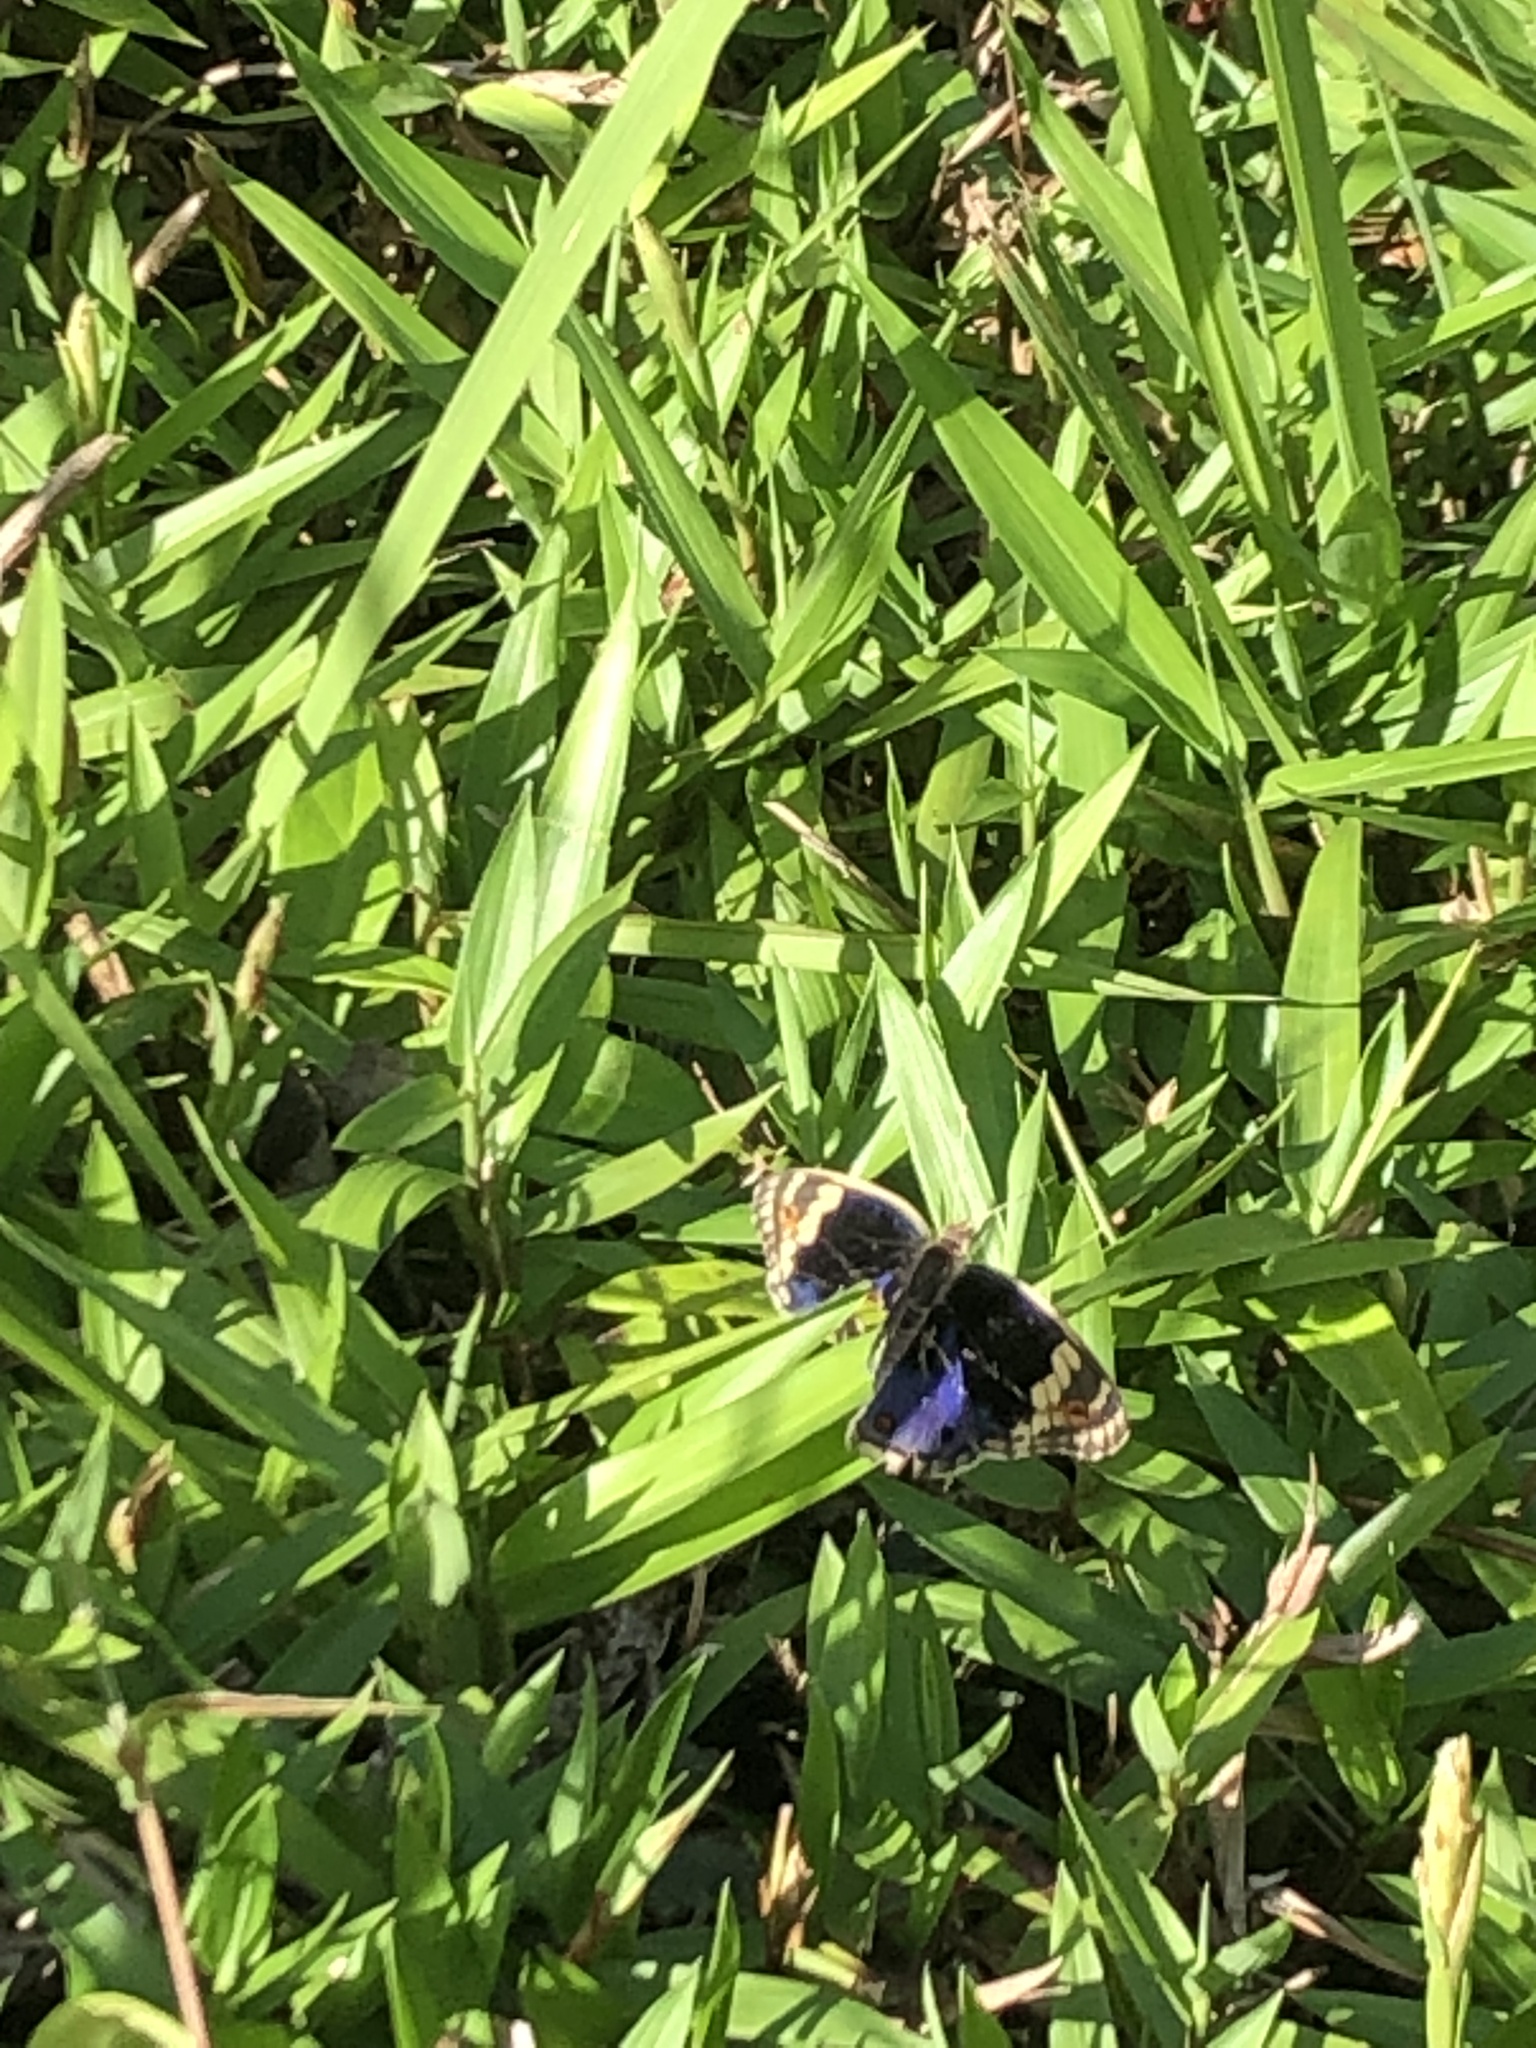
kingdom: Animalia
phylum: Arthropoda
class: Insecta
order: Lepidoptera
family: Nymphalidae
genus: Junonia
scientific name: Junonia orithya
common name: Blue pansy
